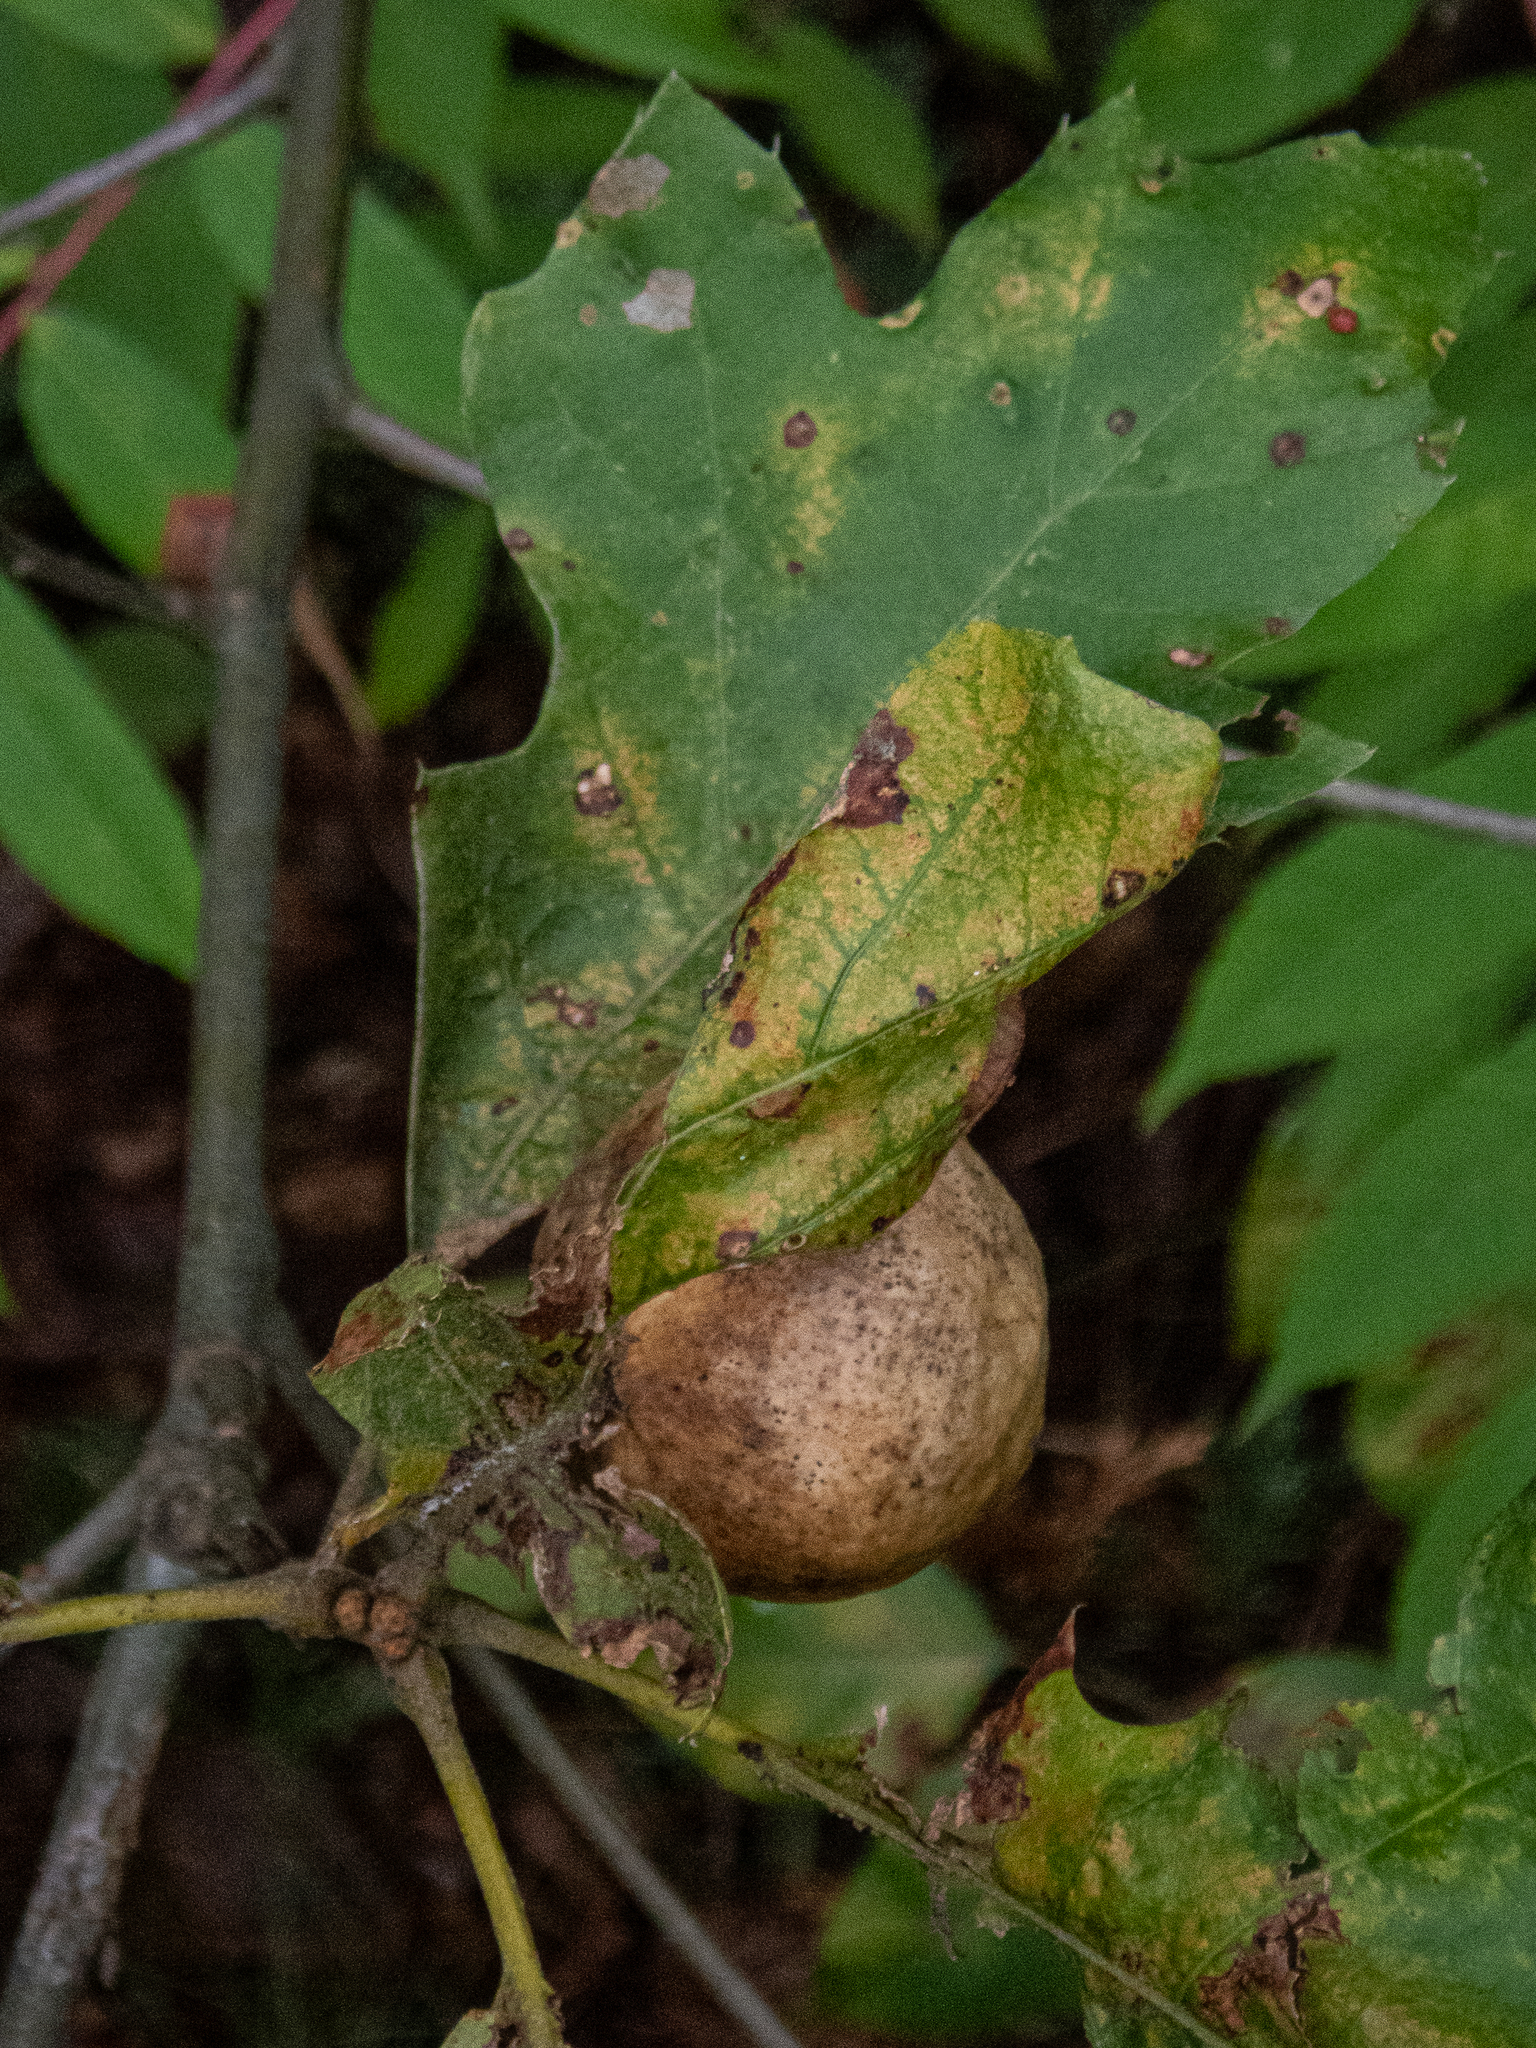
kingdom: Animalia
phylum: Arthropoda
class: Insecta
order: Hymenoptera
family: Cynipidae
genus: Amphibolips
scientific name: Amphibolips
